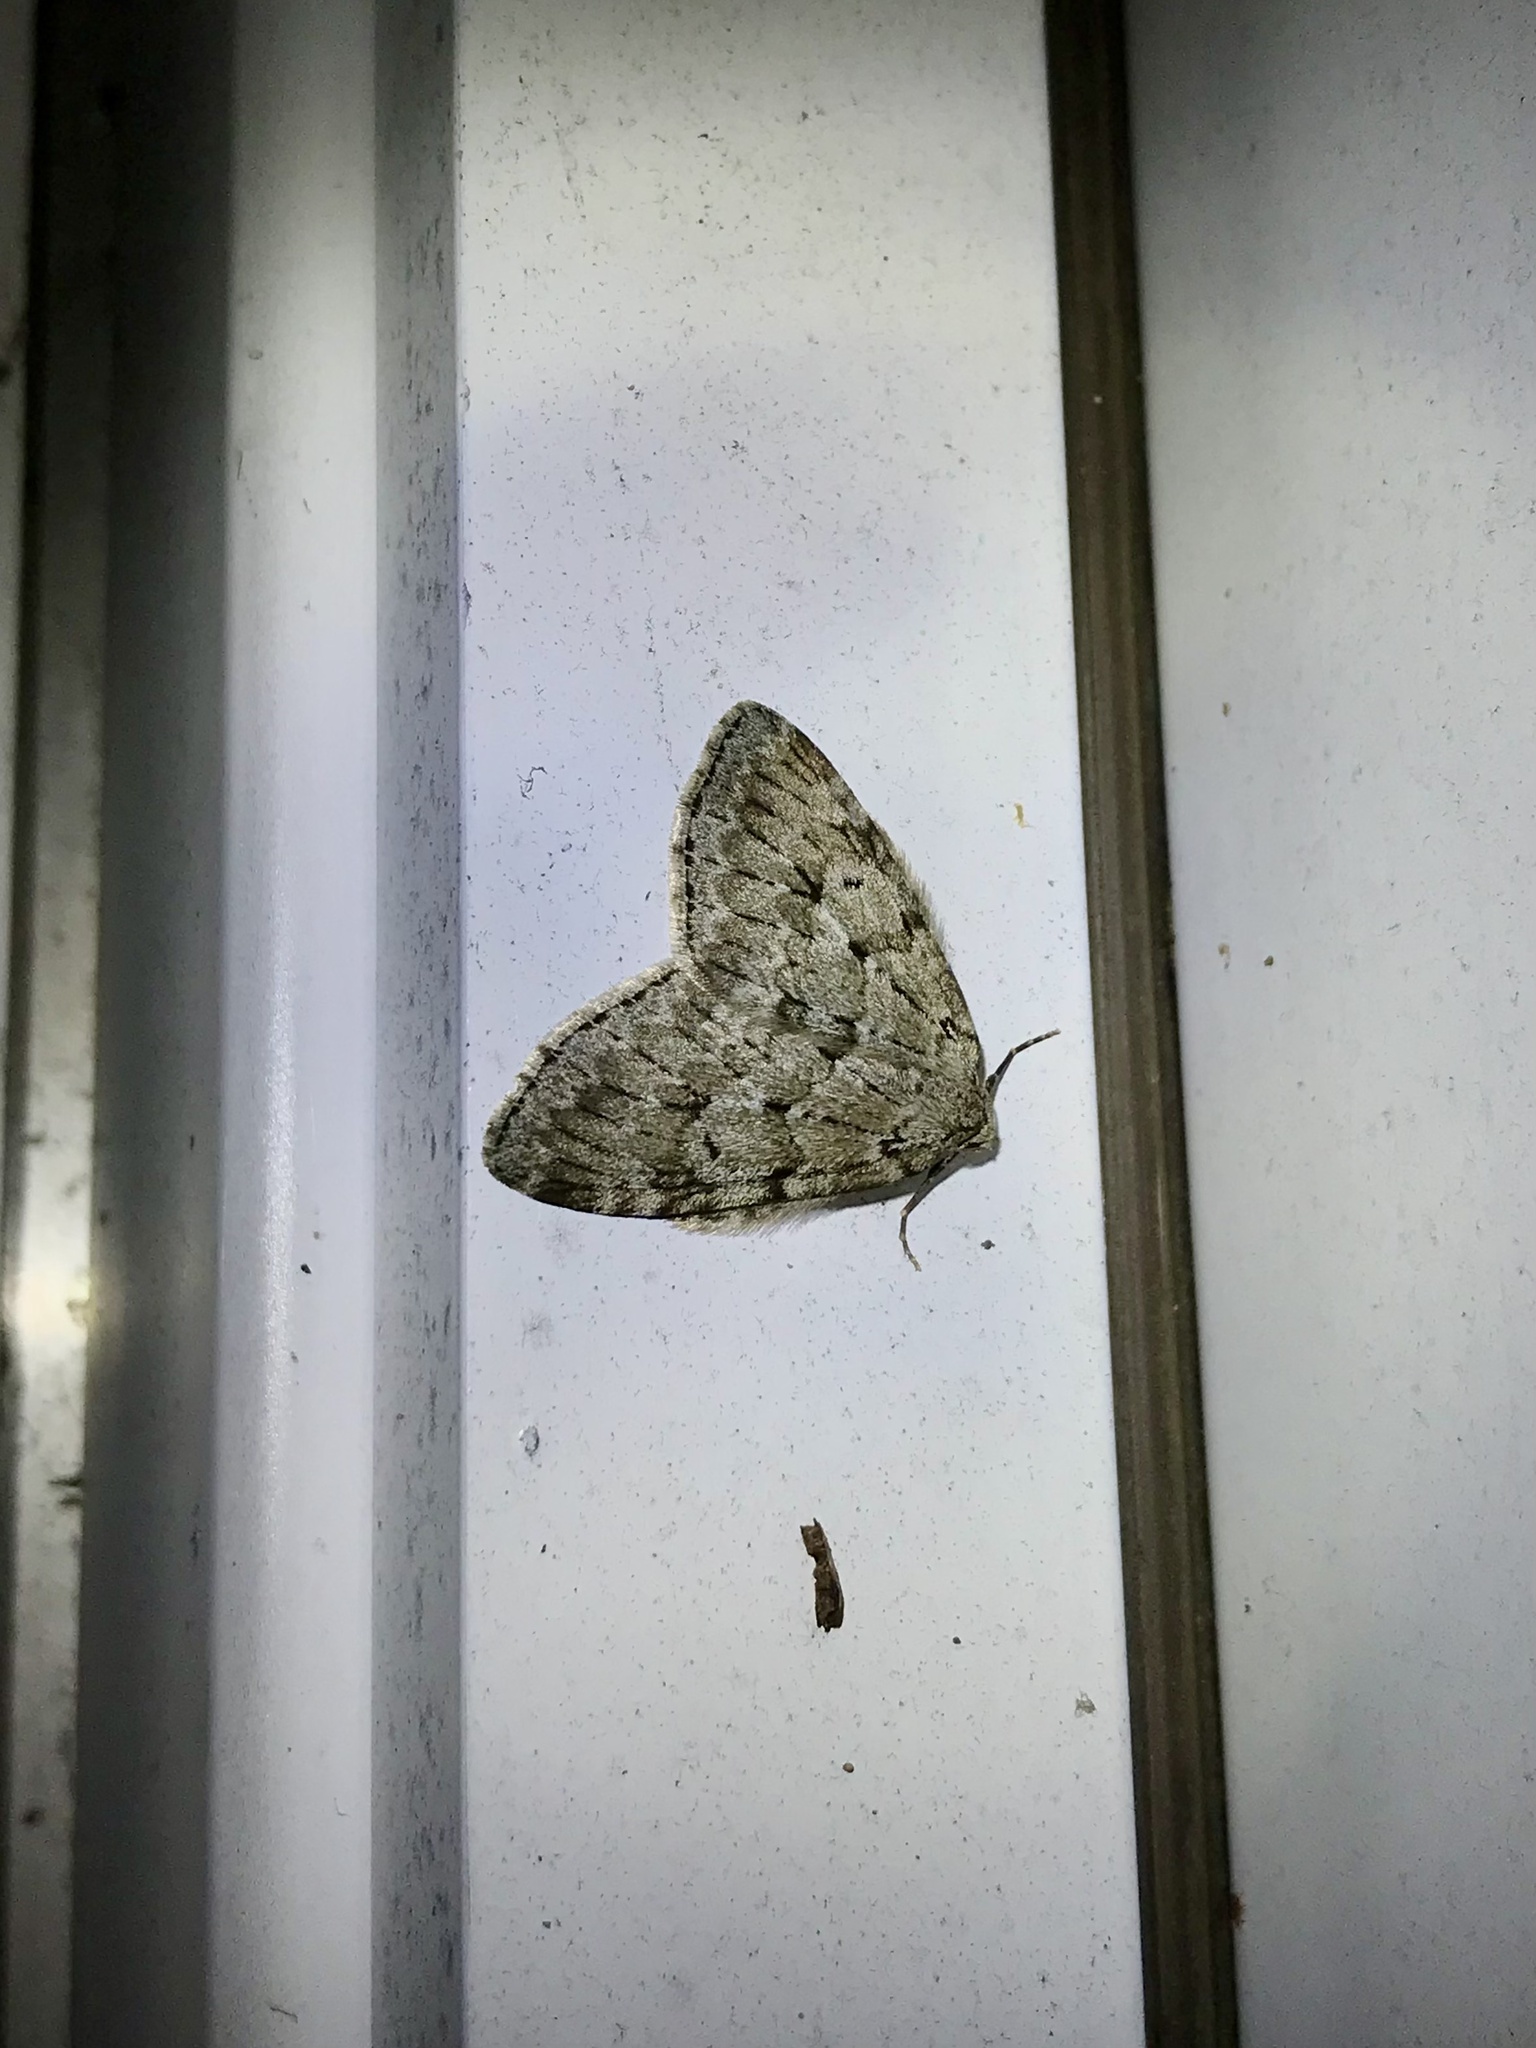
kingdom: Animalia
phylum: Arthropoda
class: Insecta
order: Lepidoptera
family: Geometridae
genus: Epirrita
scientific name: Epirrita autumnata
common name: Autumnal moth
